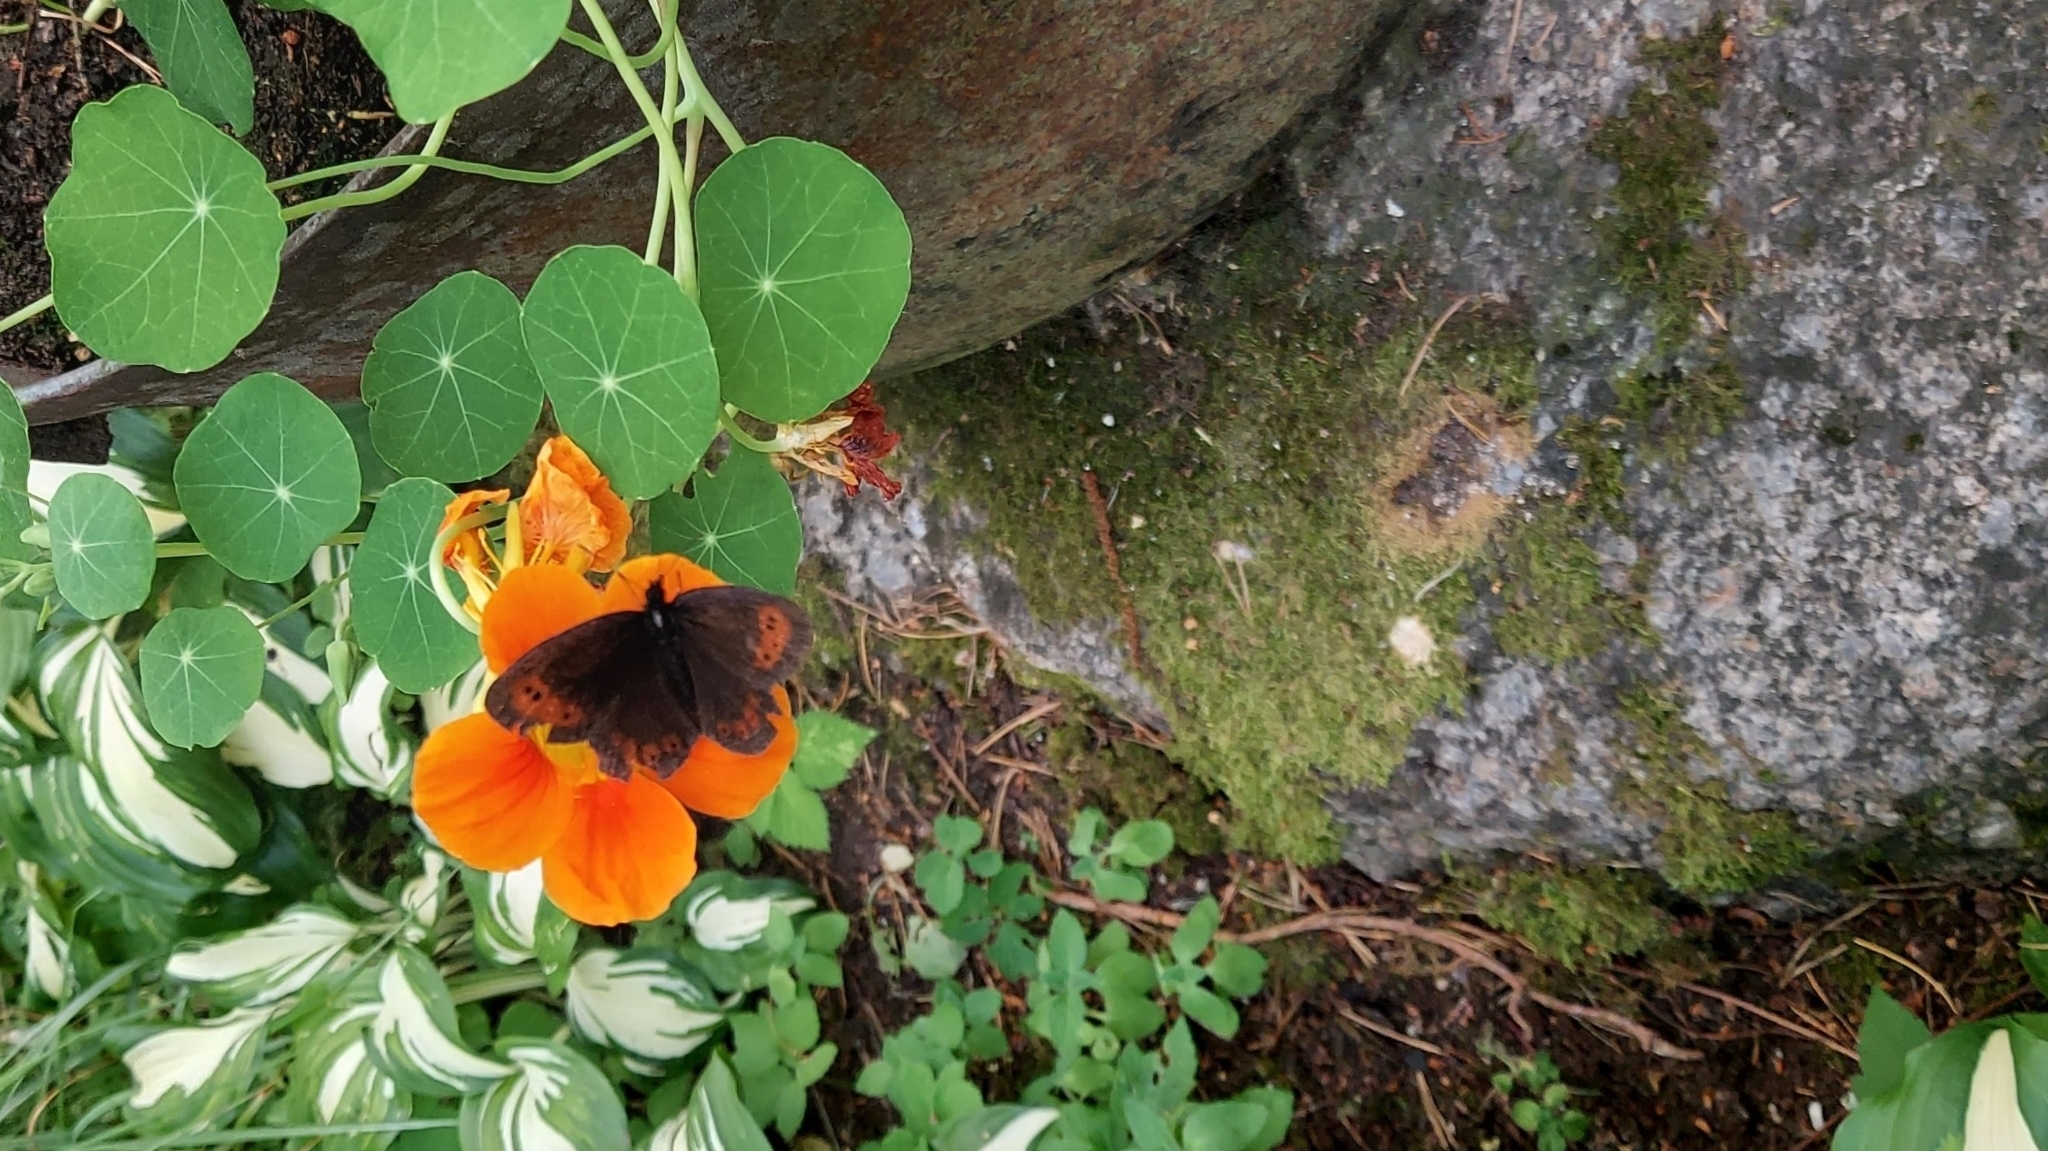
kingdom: Animalia
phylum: Arthropoda
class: Insecta
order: Lepidoptera
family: Nymphalidae
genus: Erebia
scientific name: Erebia ligea
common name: Arran brown
